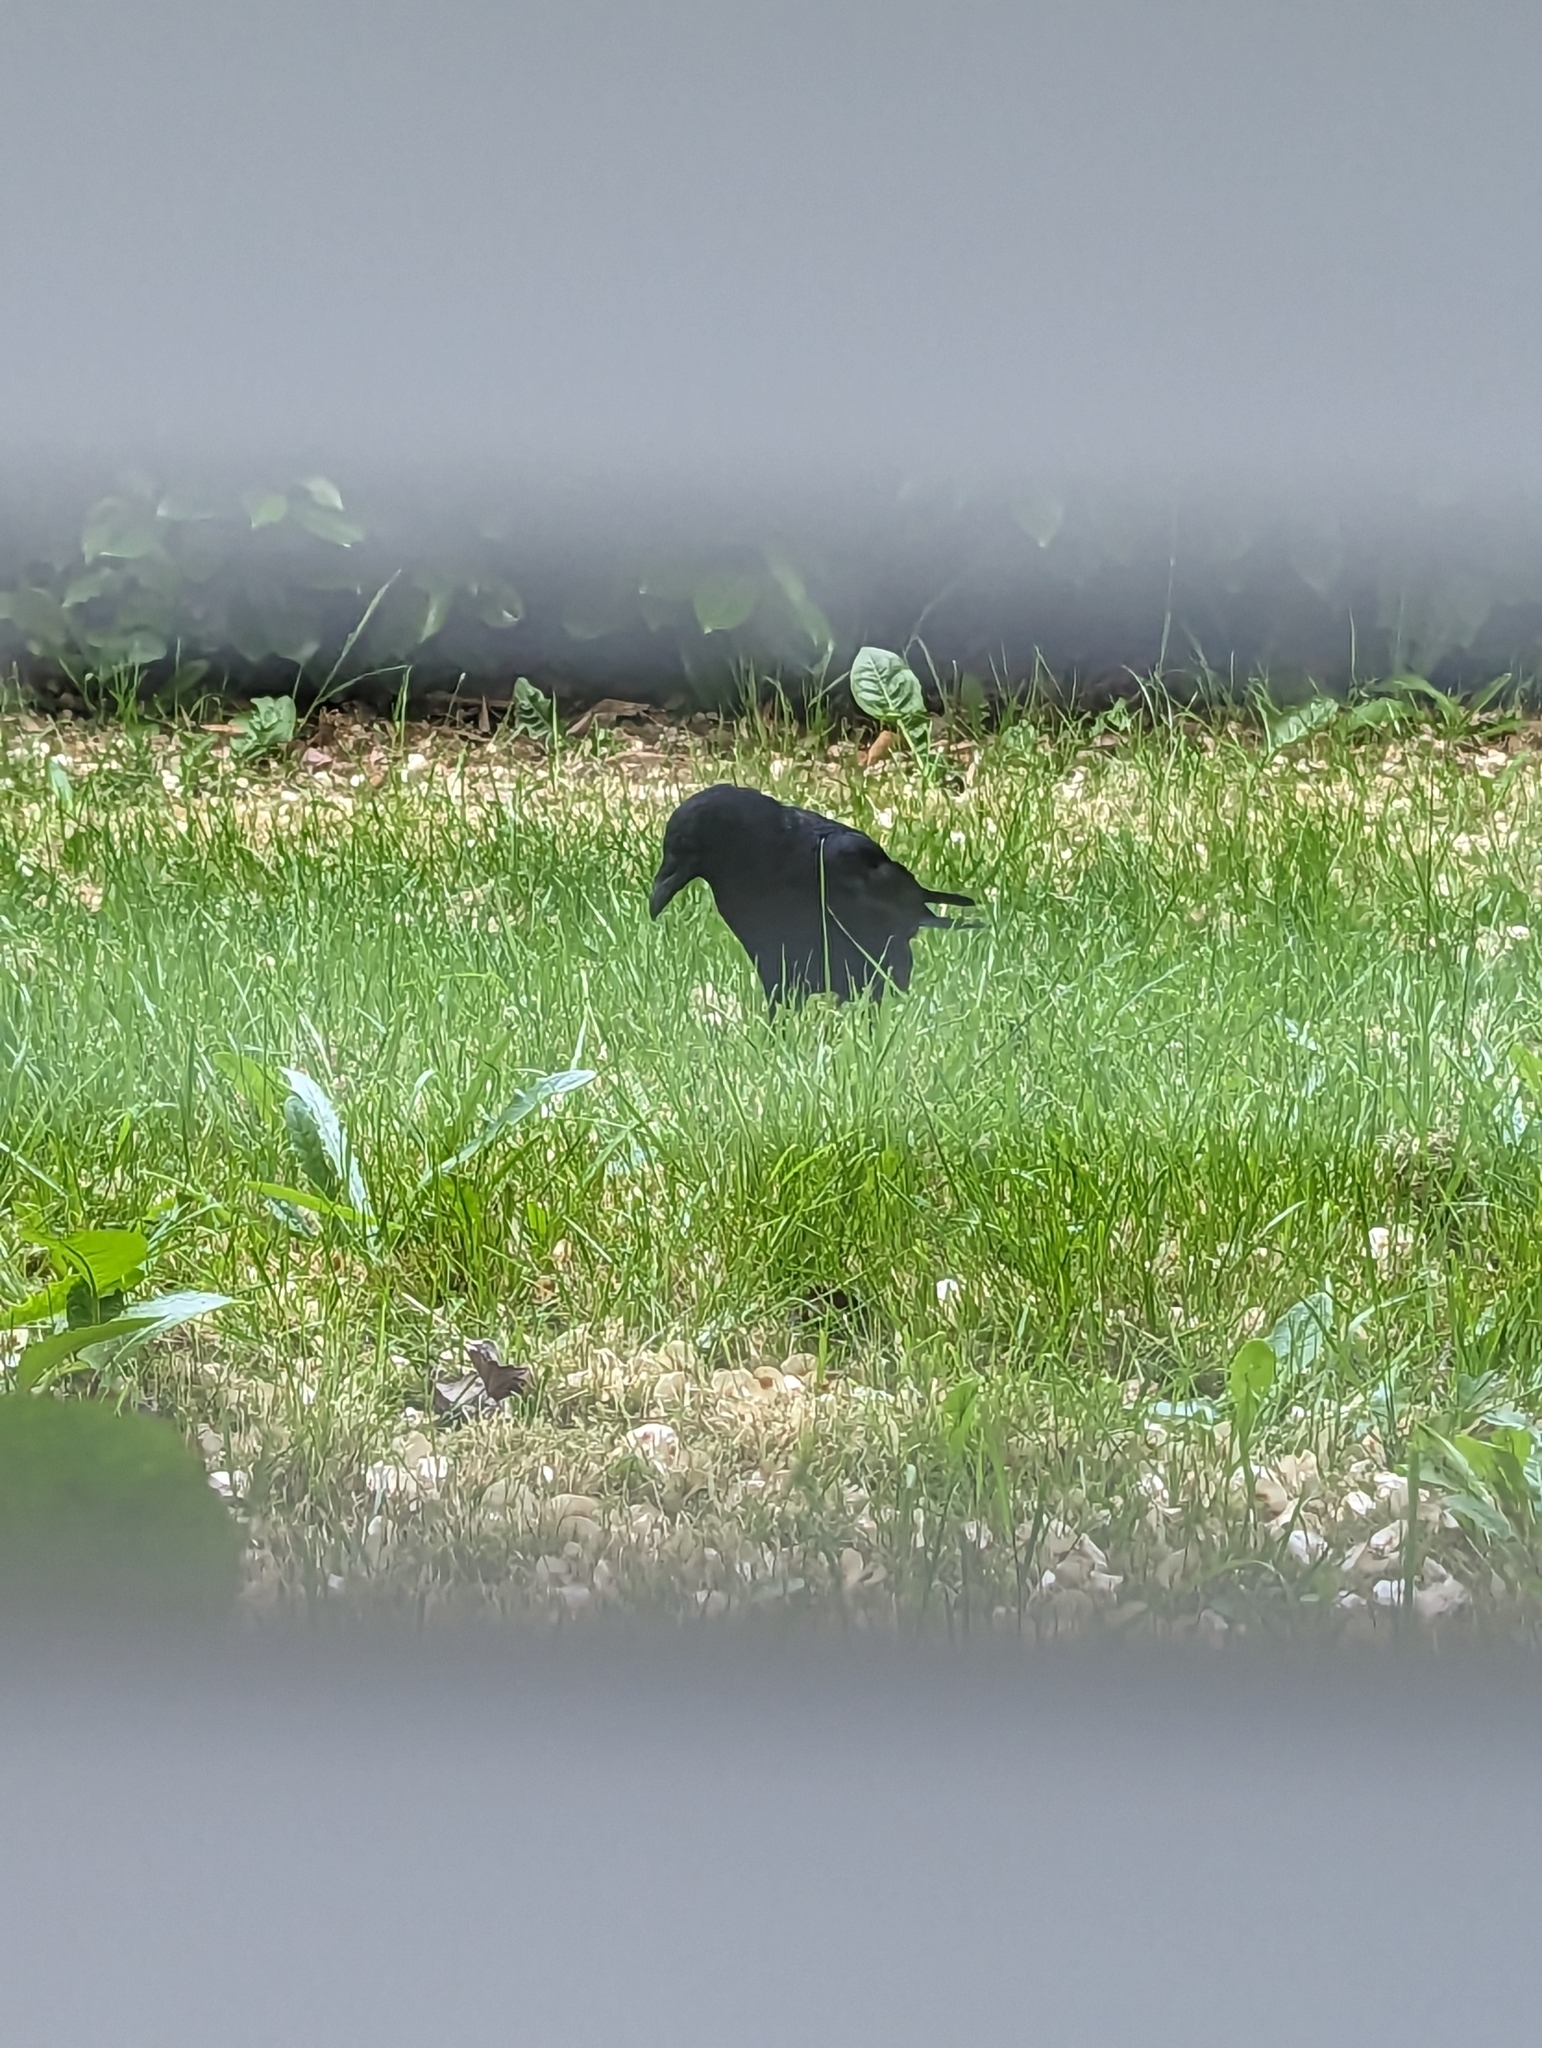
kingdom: Animalia
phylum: Chordata
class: Aves
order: Passeriformes
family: Corvidae
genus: Corvus
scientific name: Corvus brachyrhynchos
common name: American crow
